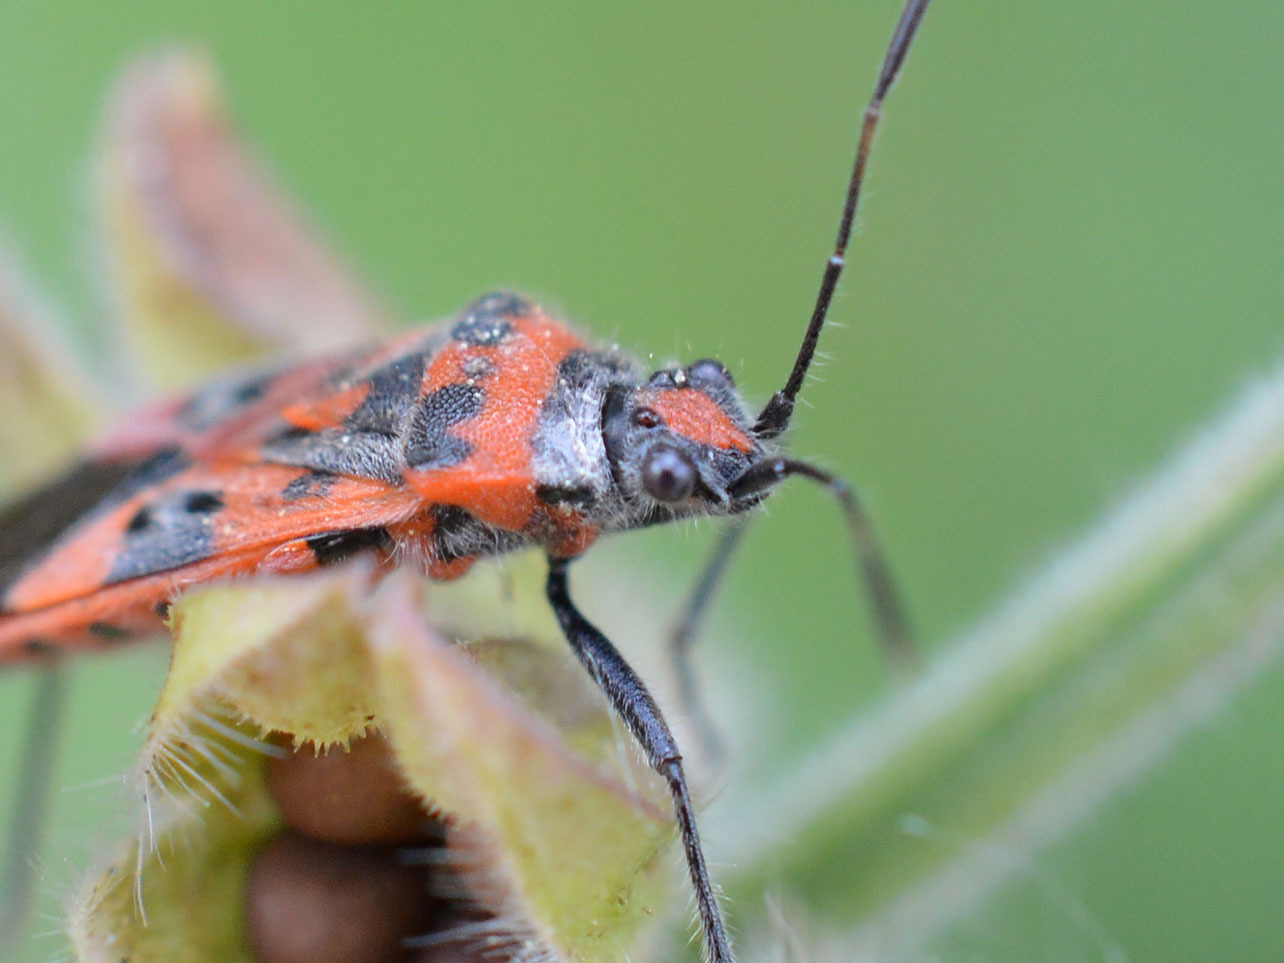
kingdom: Animalia
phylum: Arthropoda
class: Insecta
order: Hemiptera
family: Rhopalidae
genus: Corizus
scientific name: Corizus hyoscyami
